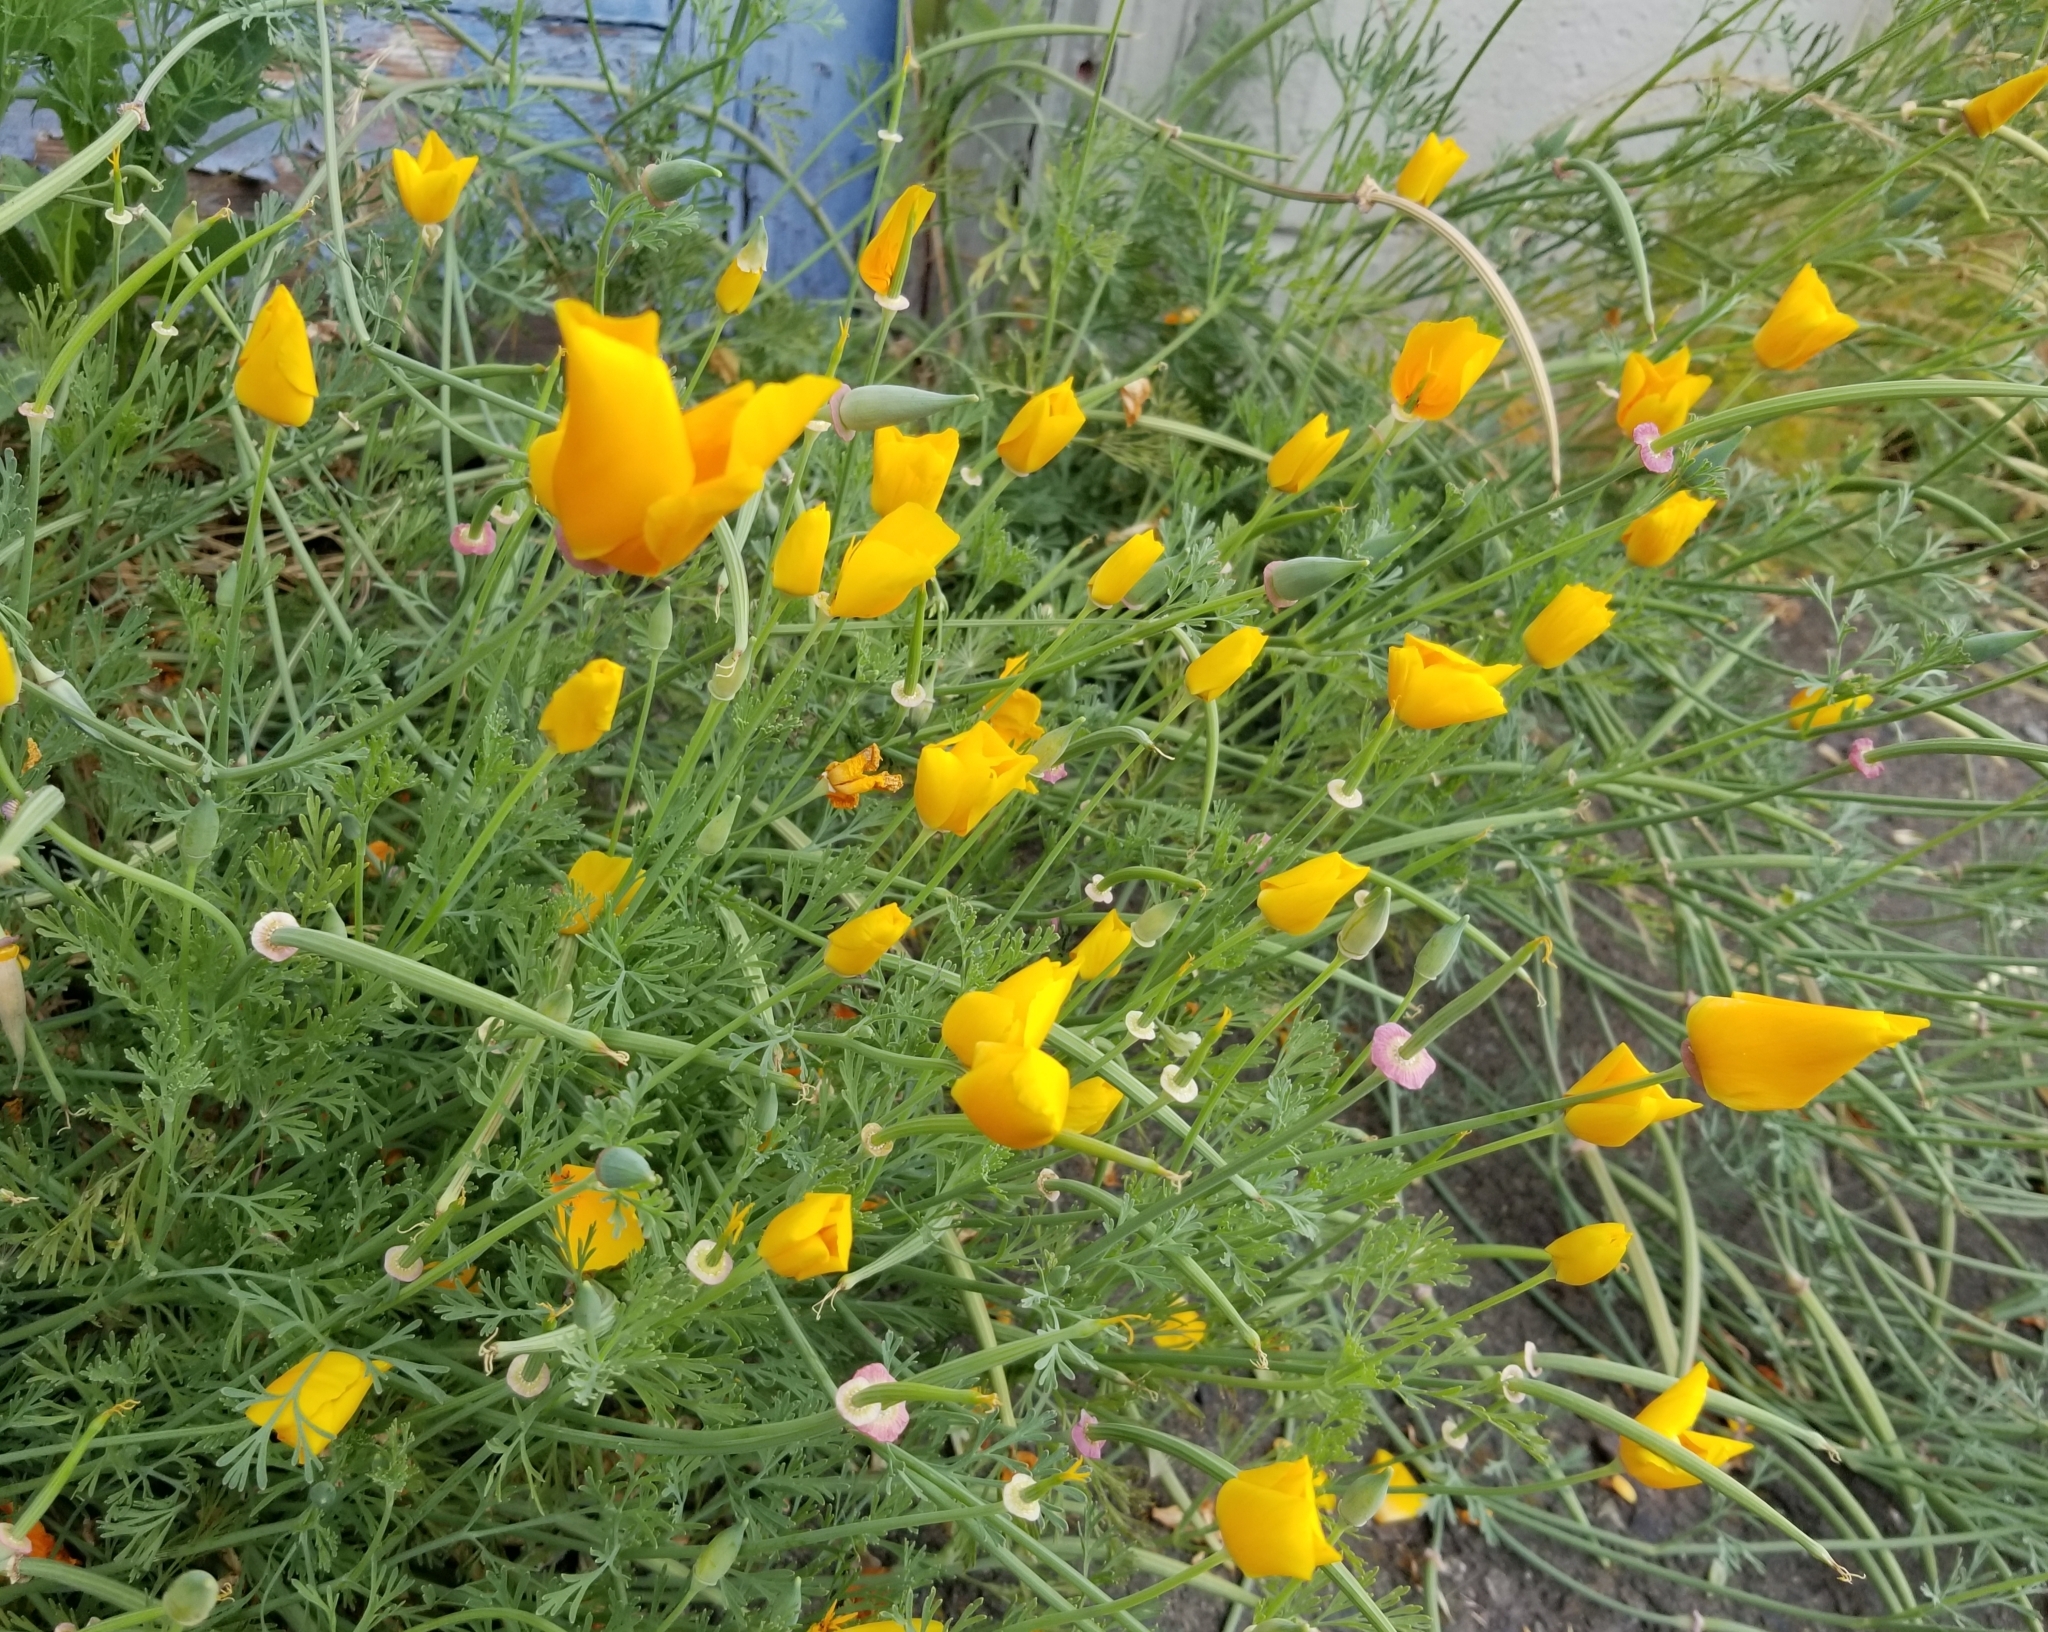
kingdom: Plantae
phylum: Tracheophyta
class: Magnoliopsida
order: Ranunculales
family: Papaveraceae
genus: Eschscholzia
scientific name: Eschscholzia californica
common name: California poppy
